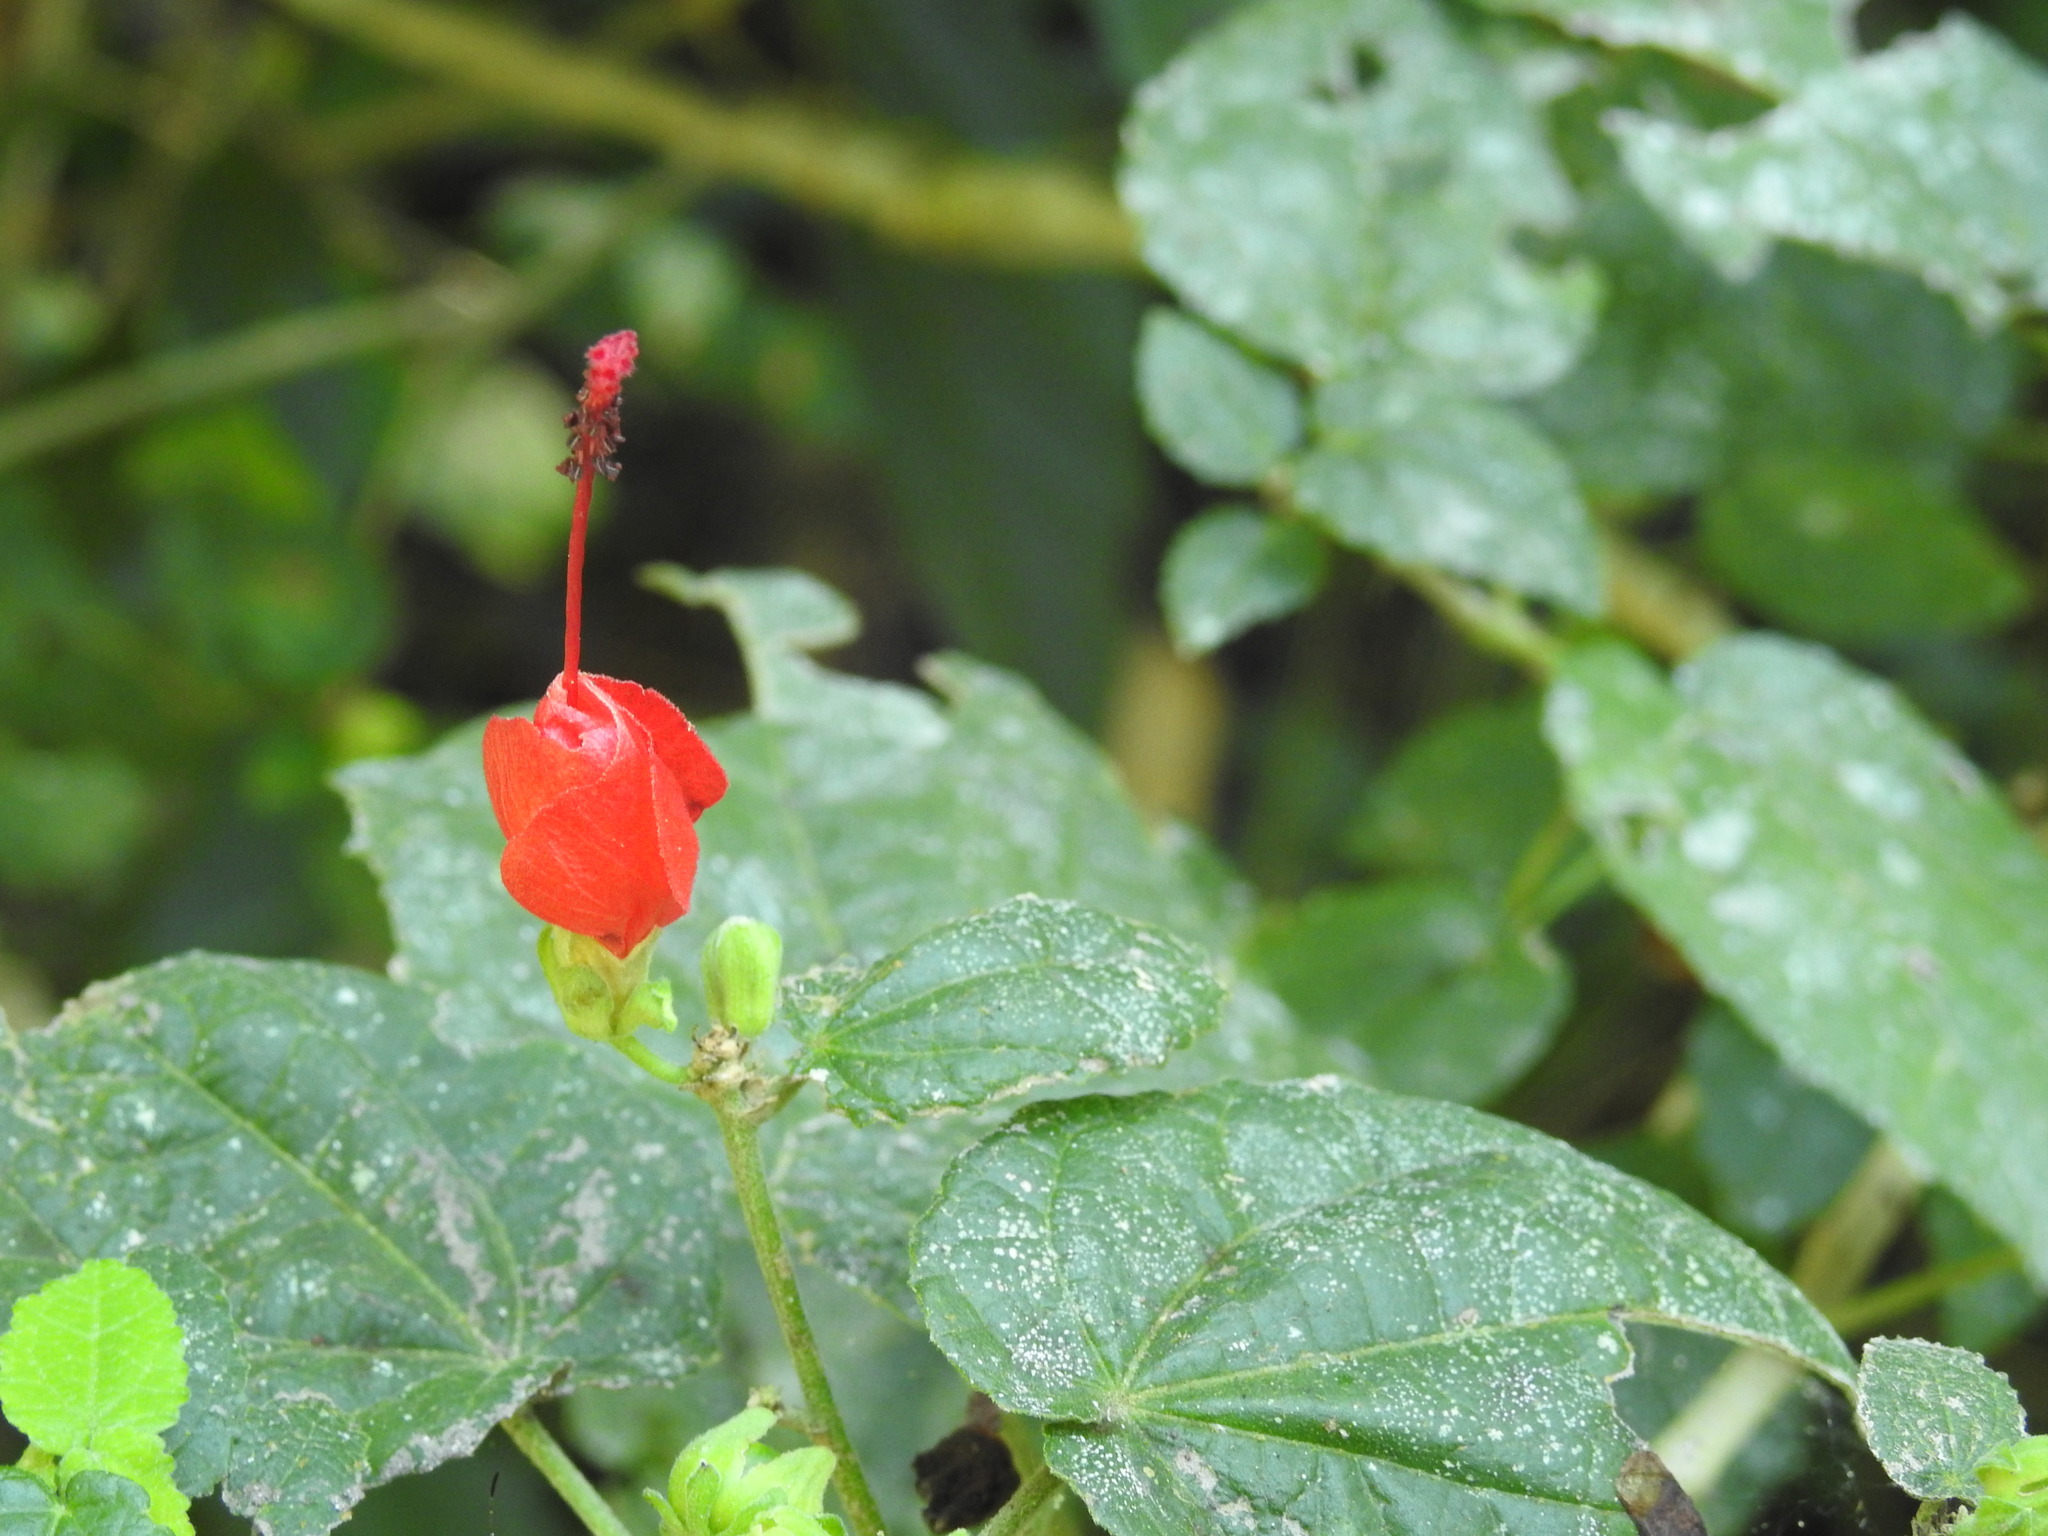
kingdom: Plantae
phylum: Tracheophyta
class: Magnoliopsida
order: Malvales
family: Malvaceae
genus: Malvaviscus
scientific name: Malvaviscus arboreus
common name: Wax mallow
